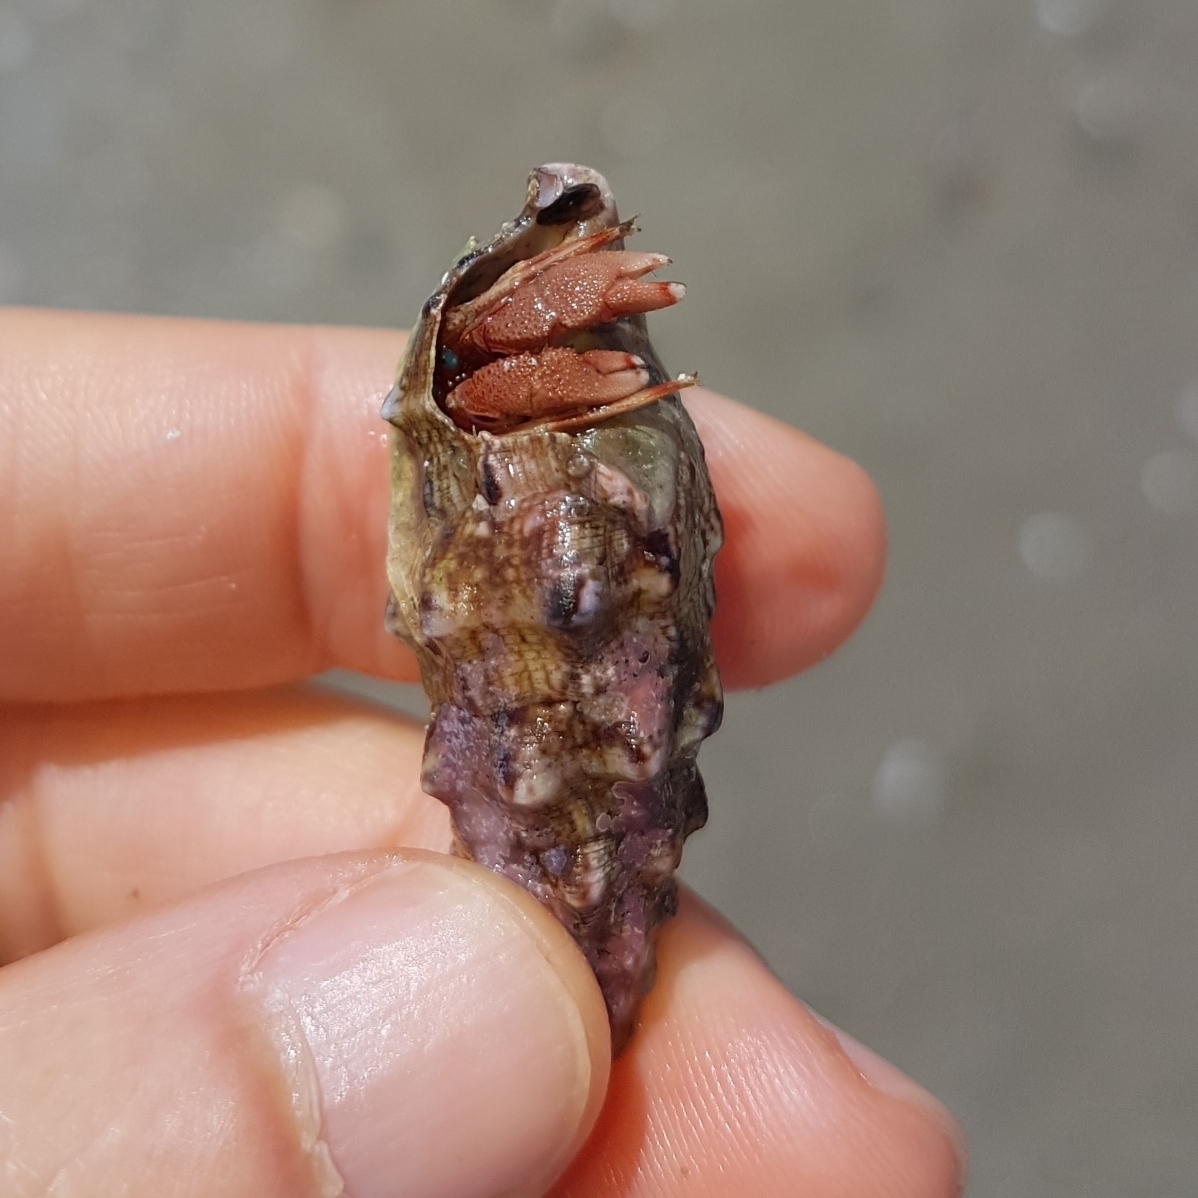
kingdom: Animalia
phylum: Mollusca
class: Gastropoda
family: Cerithiidae
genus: Cerithium
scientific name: Cerithium vulgatum
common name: European cerith
